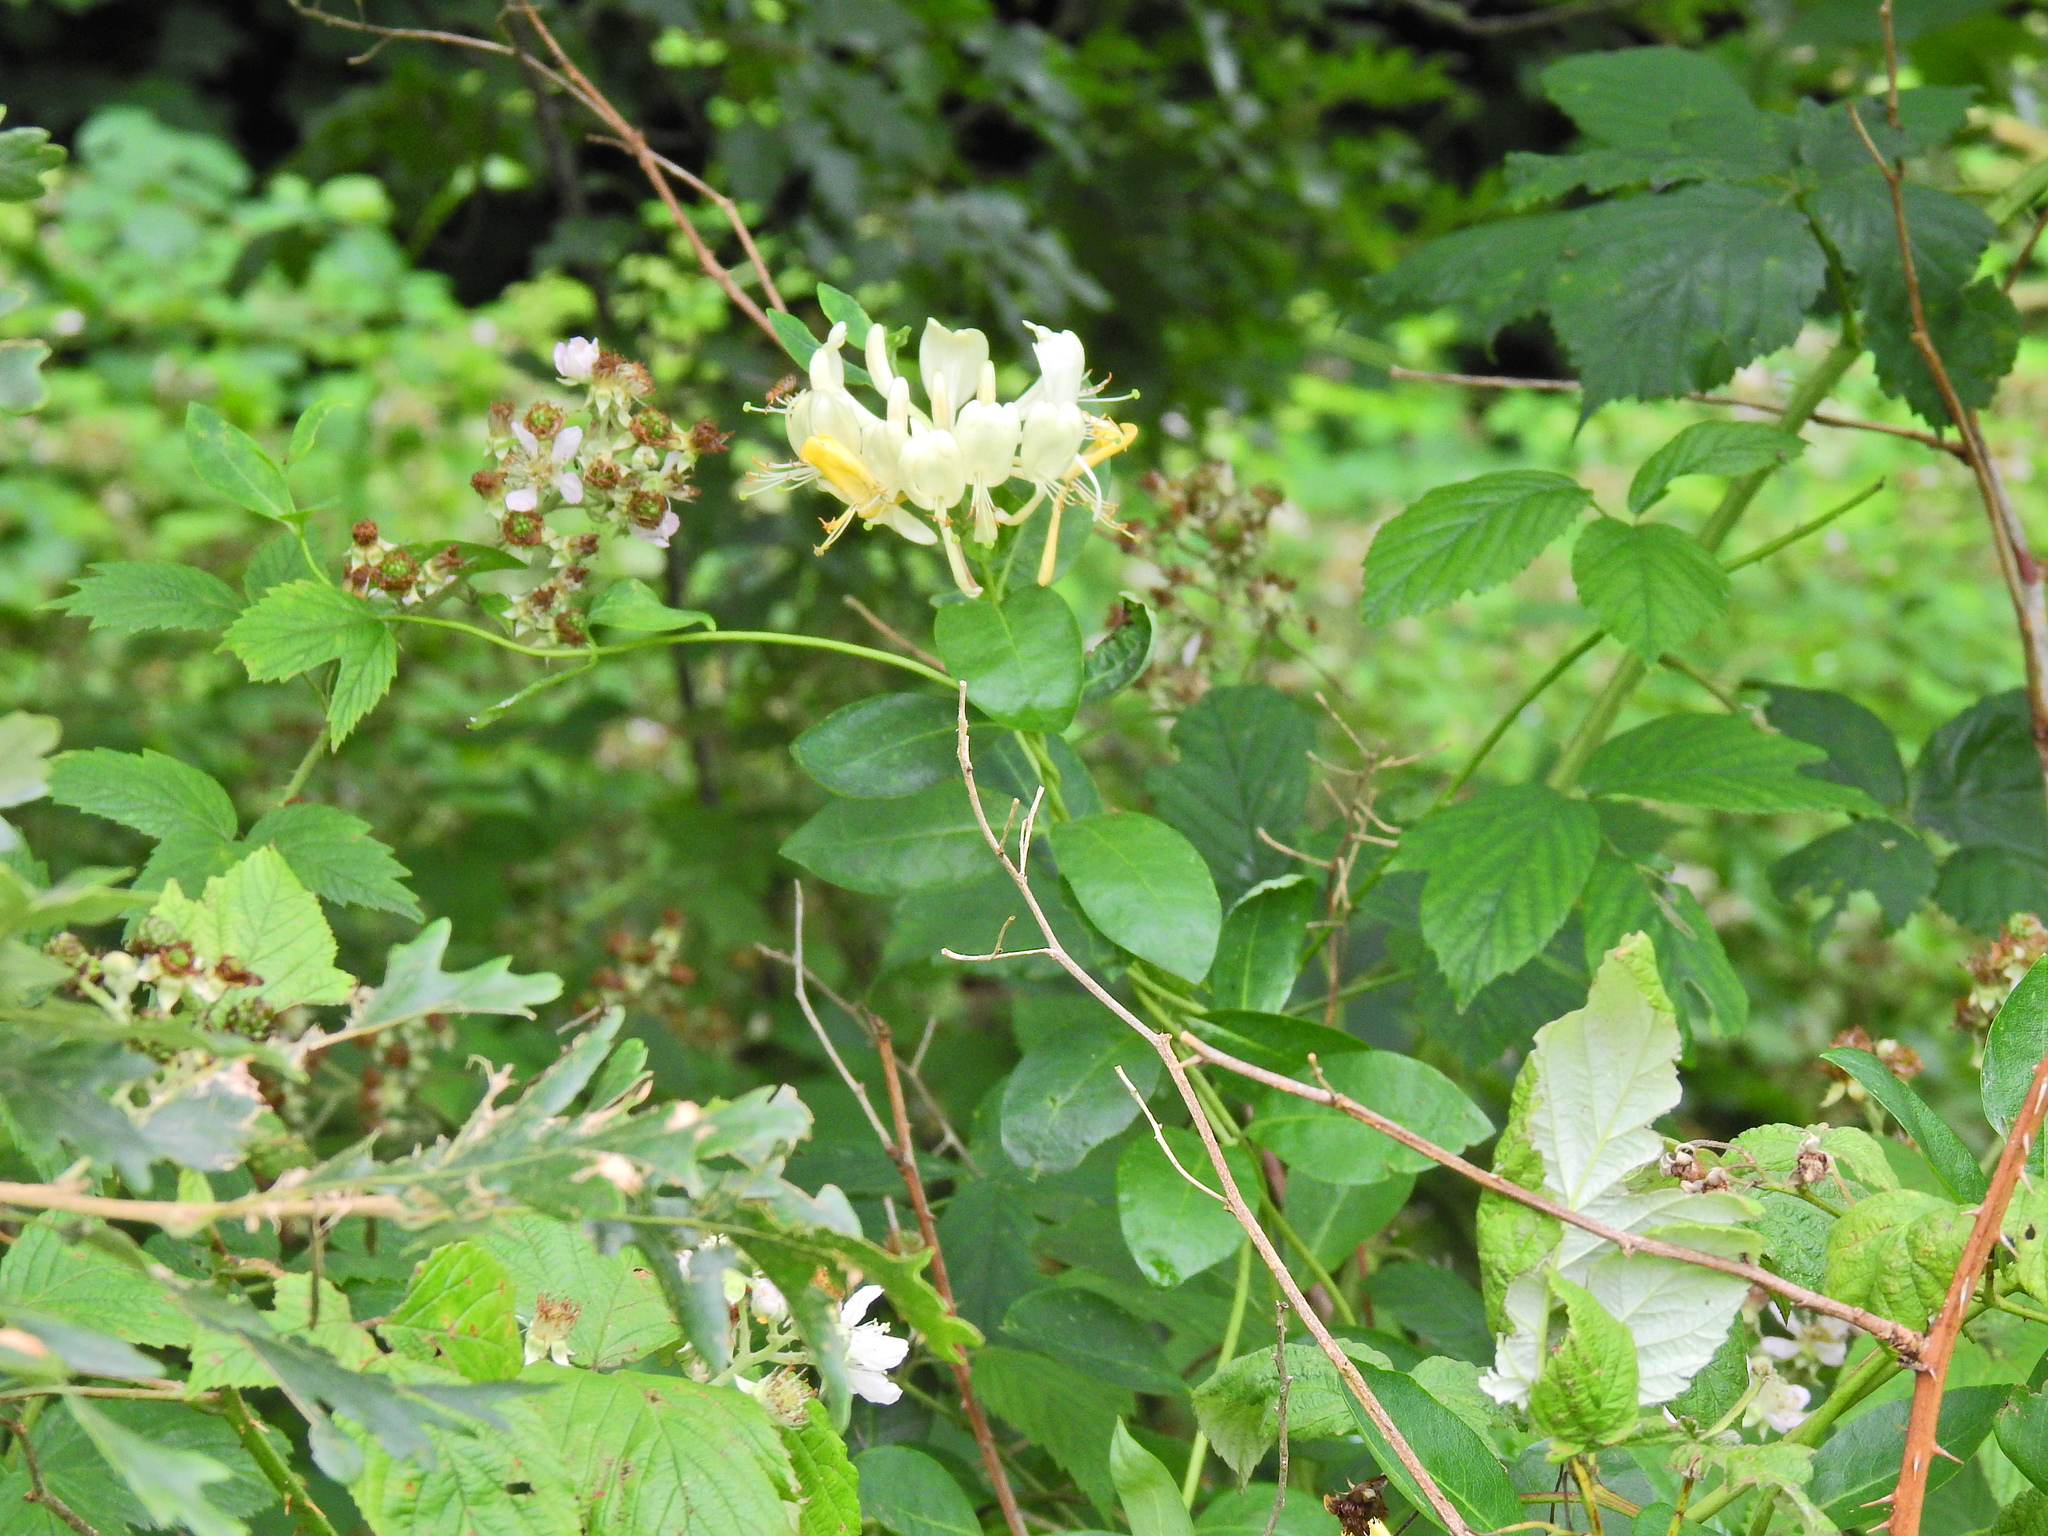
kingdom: Plantae
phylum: Tracheophyta
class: Magnoliopsida
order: Dipsacales
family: Caprifoliaceae
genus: Lonicera
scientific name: Lonicera periclymenum
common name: European honeysuckle
